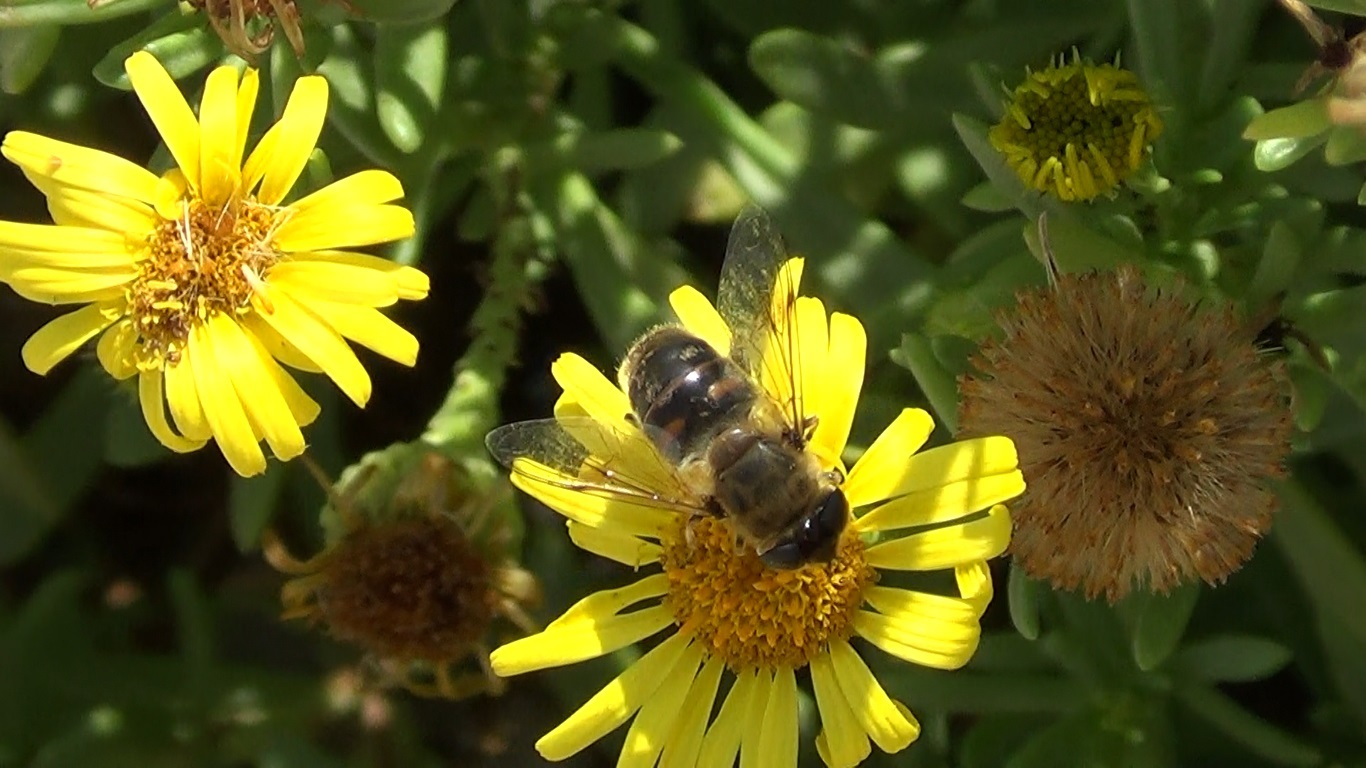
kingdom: Animalia
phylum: Arthropoda
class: Insecta
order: Diptera
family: Syrphidae
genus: Eristalis
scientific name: Eristalis tenax
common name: Drone fly
